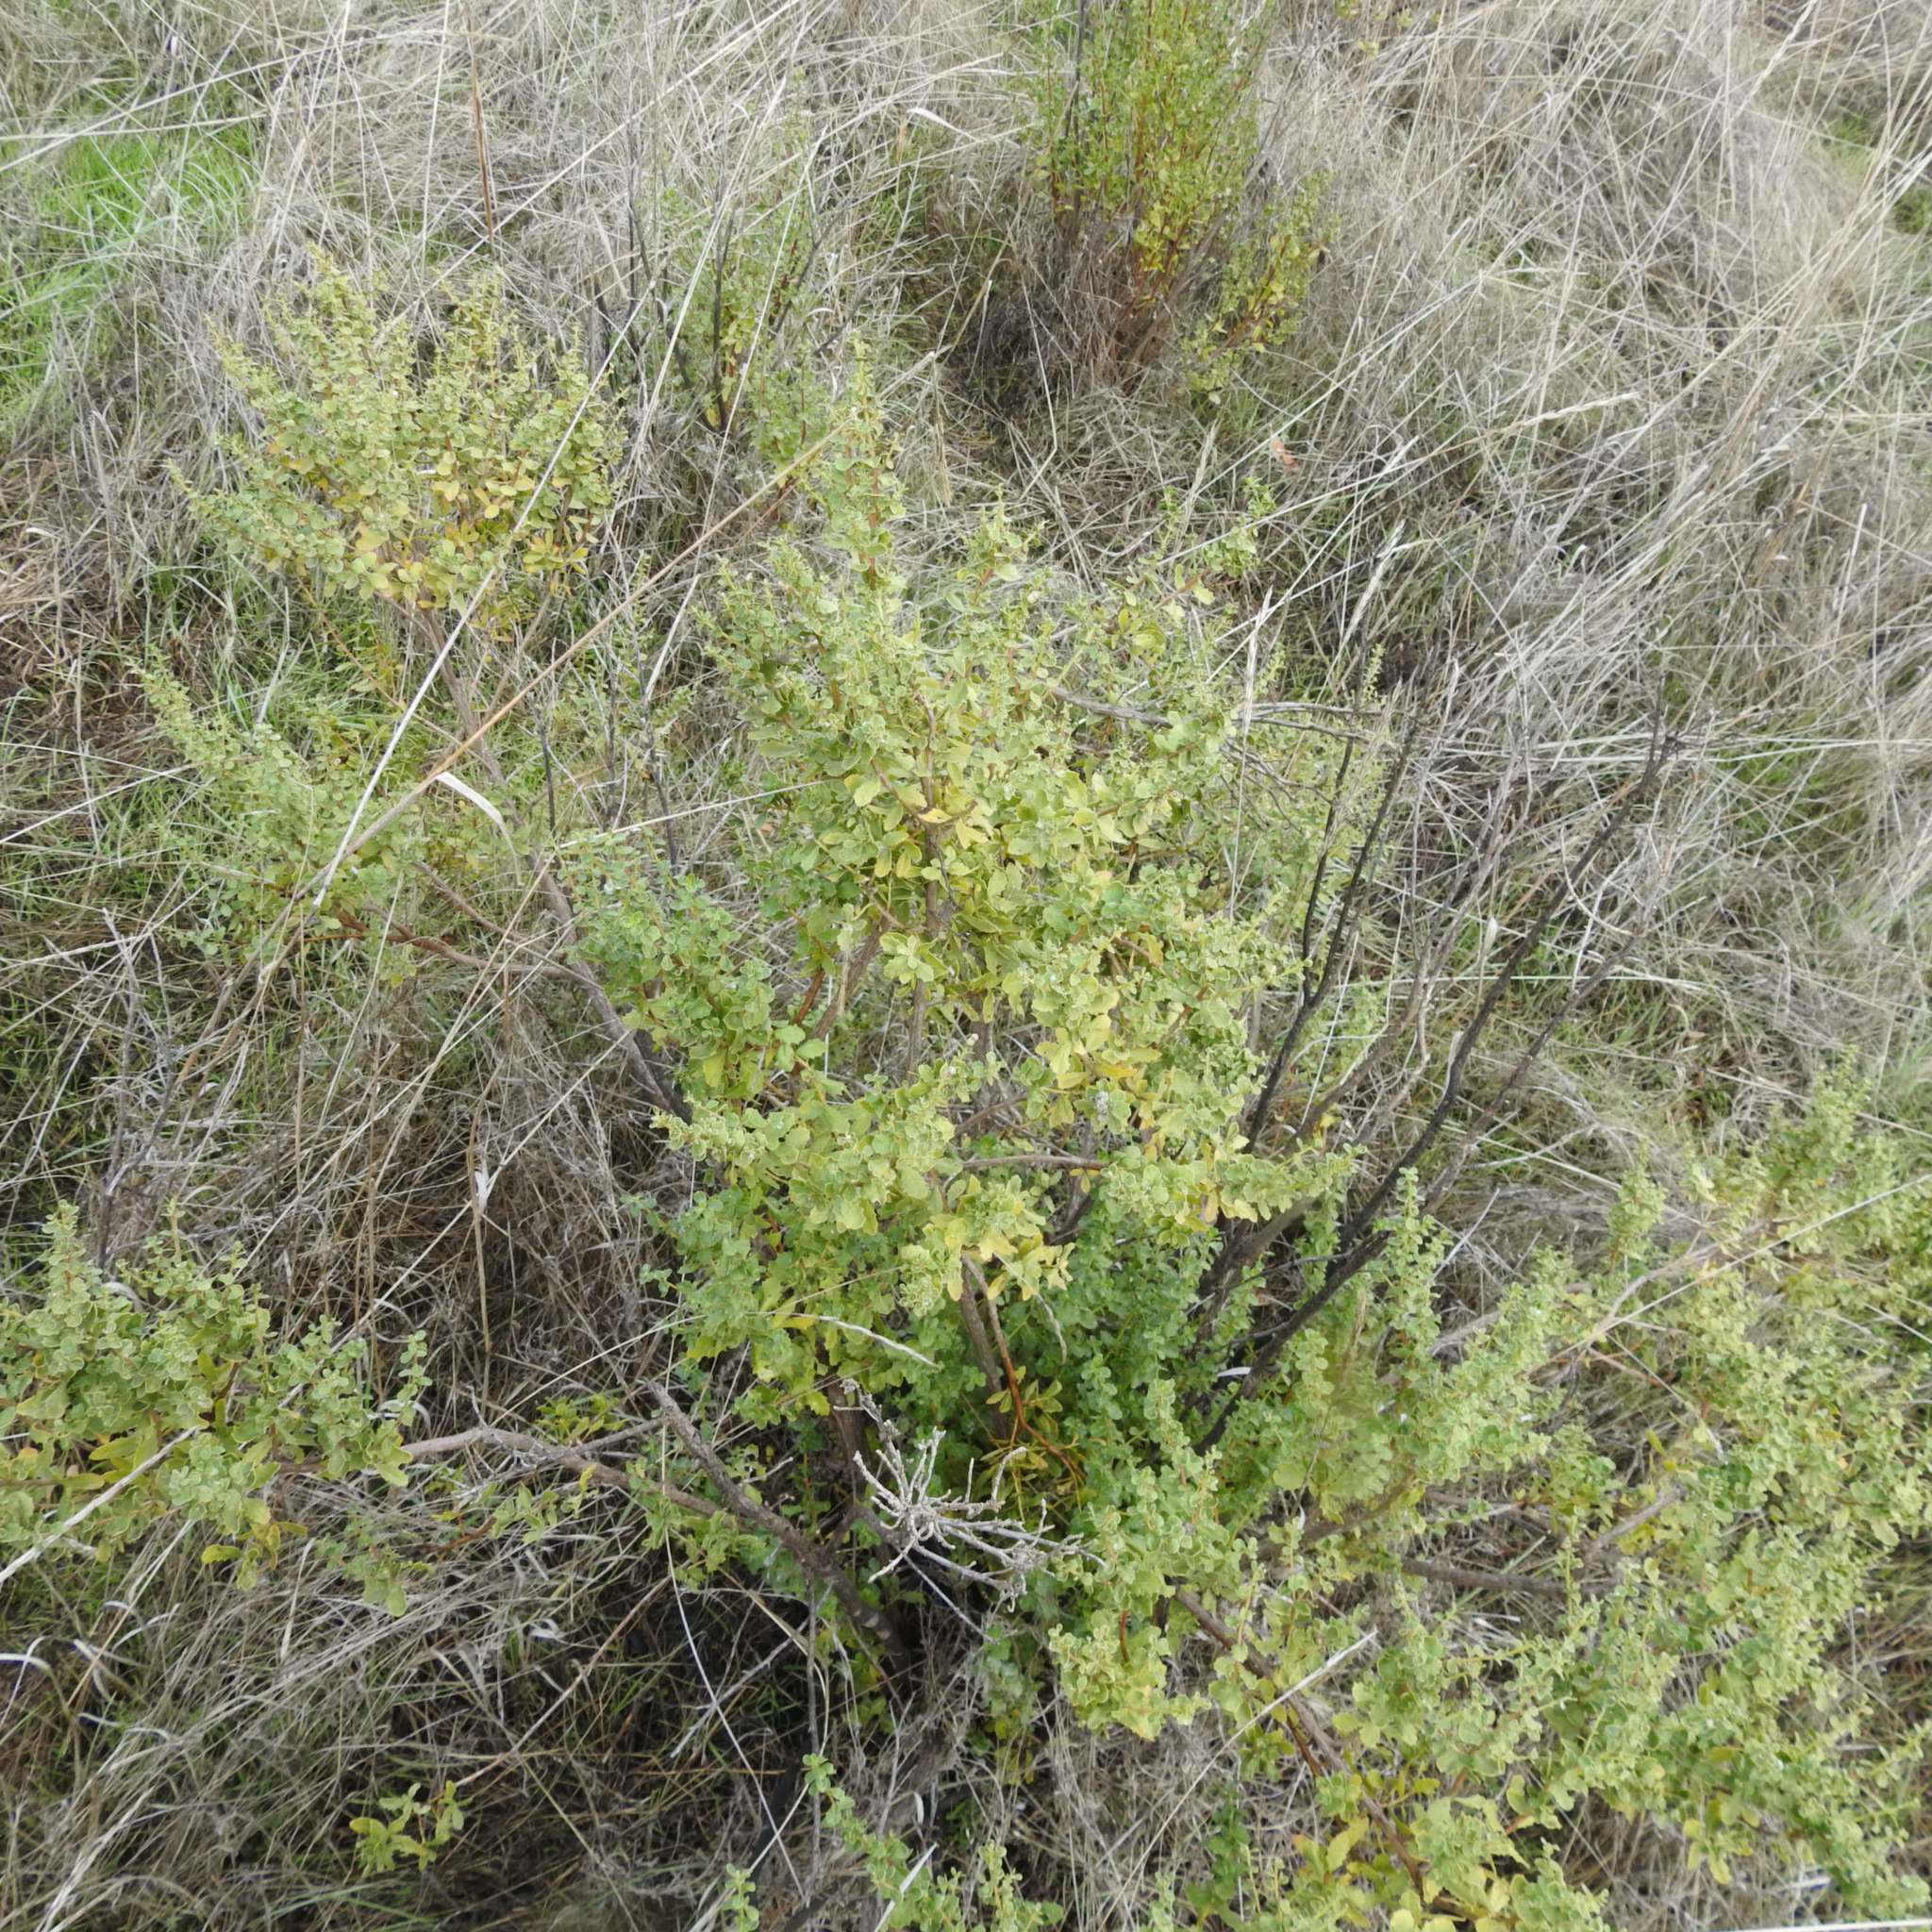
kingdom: Plantae
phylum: Tracheophyta
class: Magnoliopsida
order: Asterales
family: Asteraceae
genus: Baccharis
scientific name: Baccharis pilularis
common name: Coyotebrush
